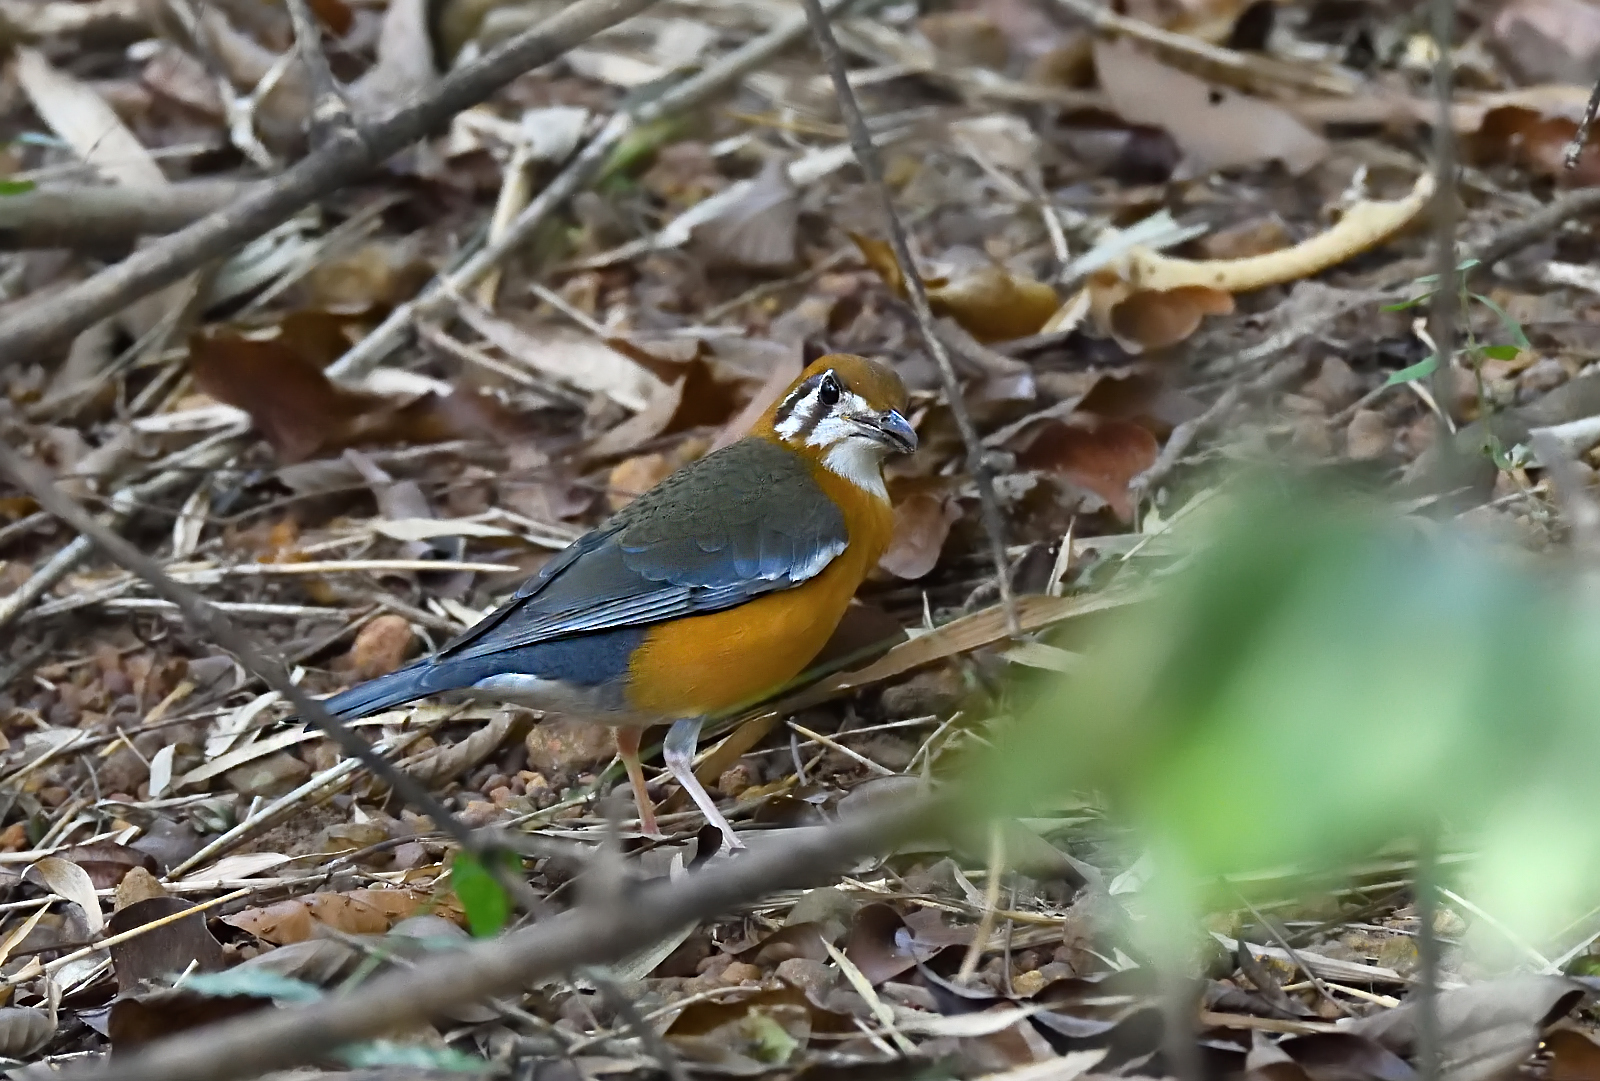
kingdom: Animalia
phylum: Chordata
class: Aves
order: Passeriformes
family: Turdidae
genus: Geokichla
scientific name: Geokichla citrina
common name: Orange-headed thrush
